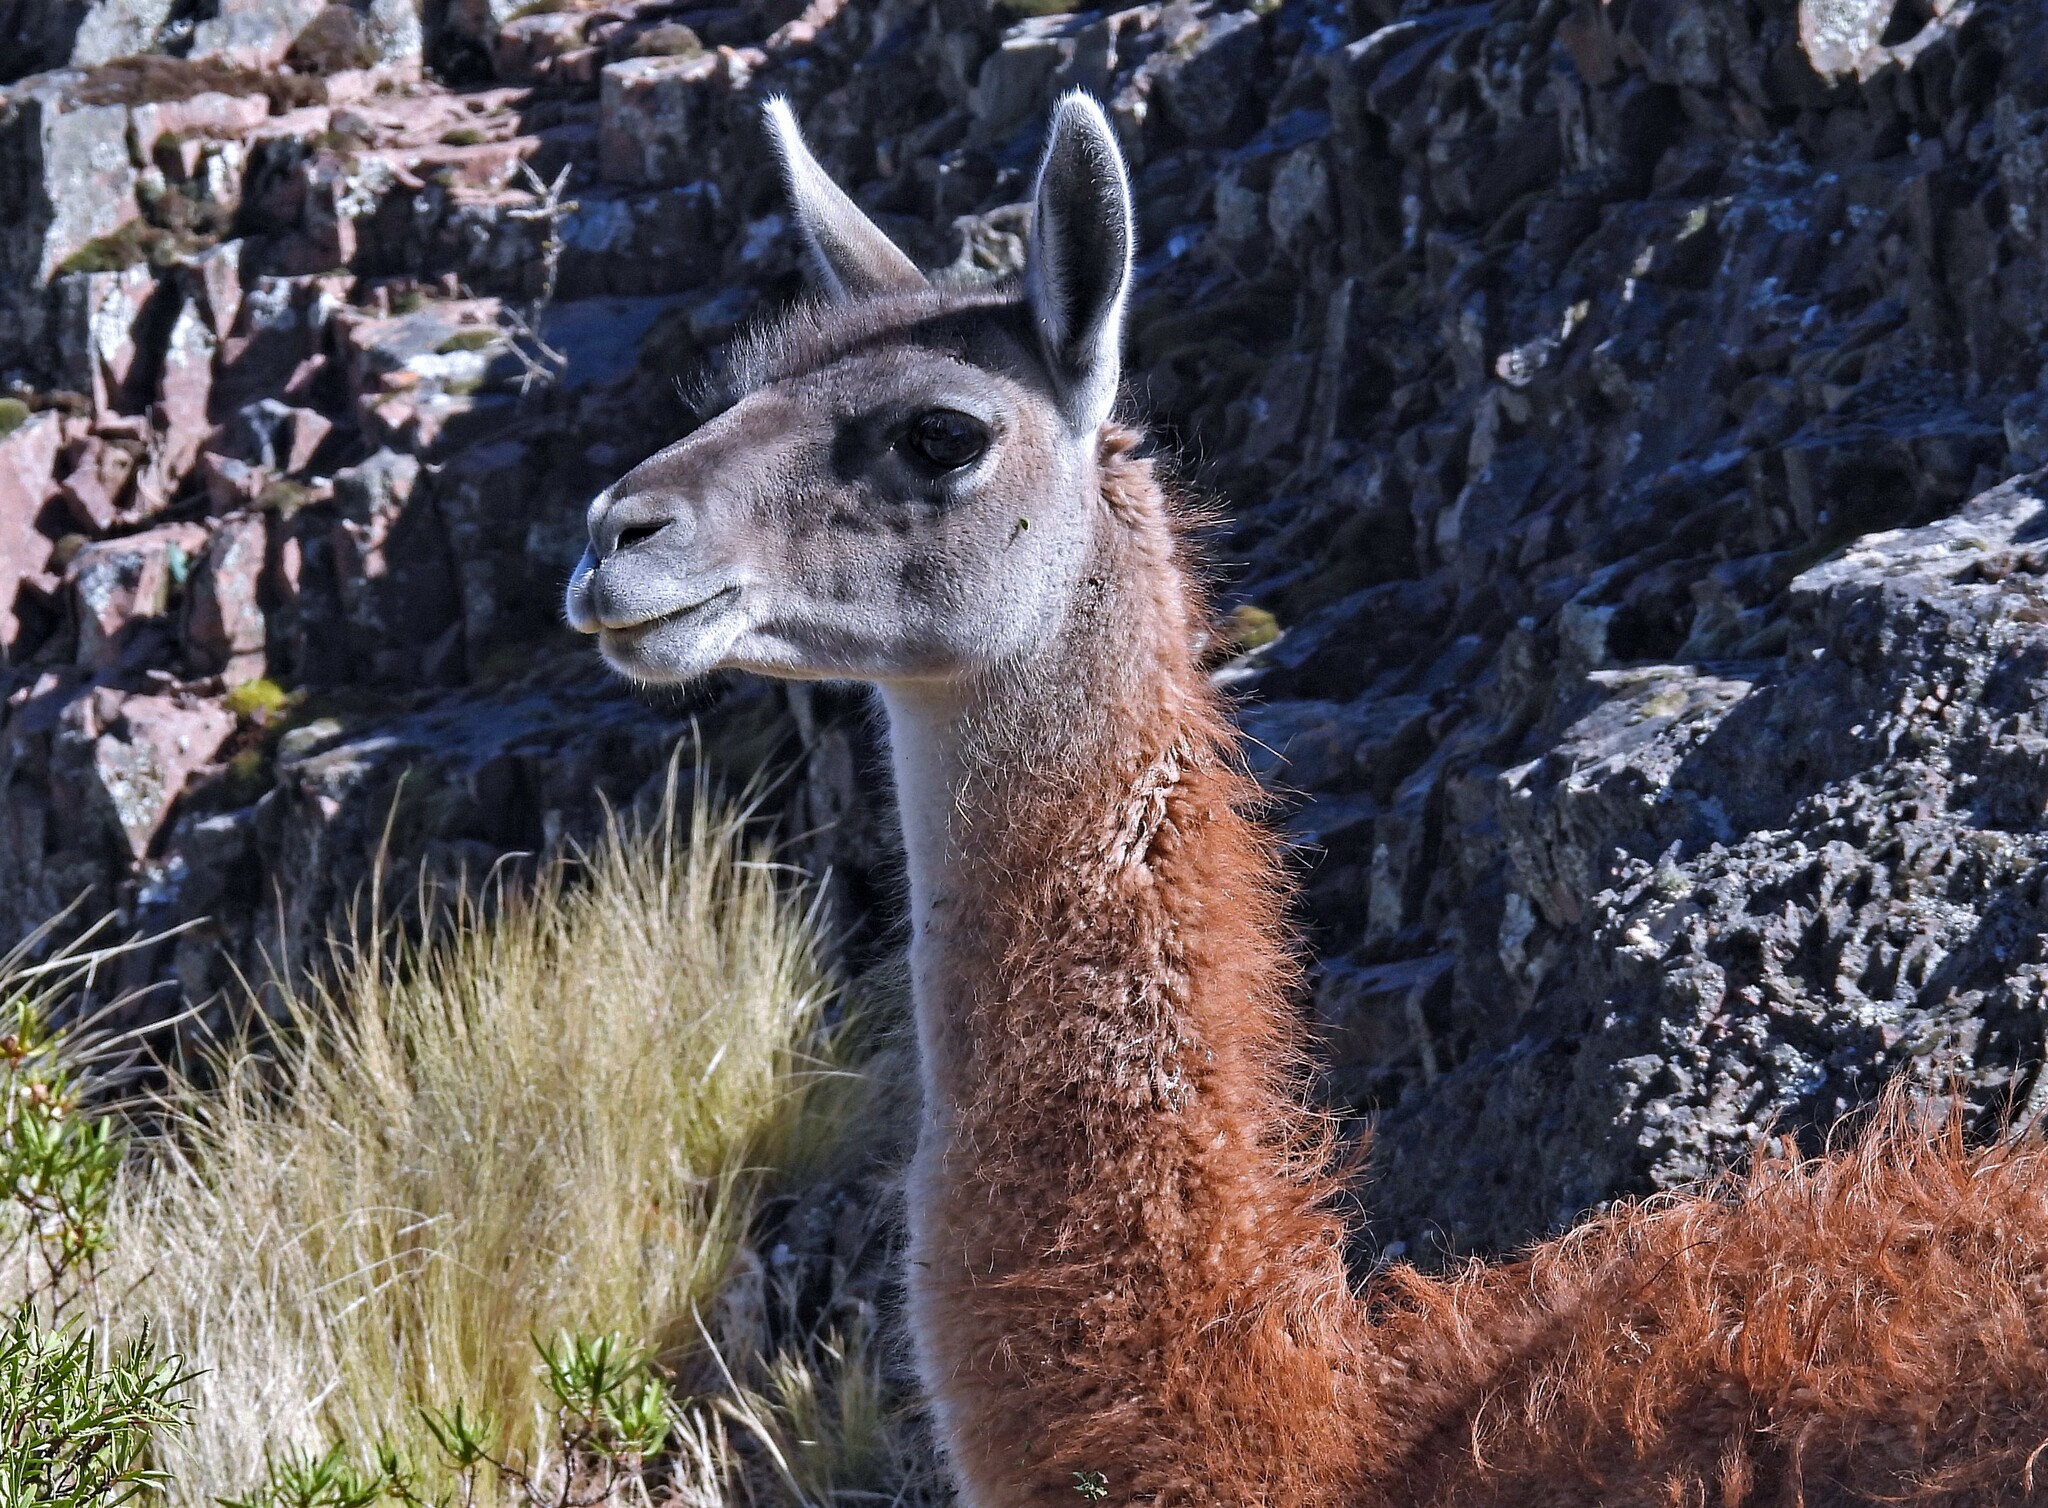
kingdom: Animalia
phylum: Chordata
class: Mammalia
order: Artiodactyla
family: Camelidae
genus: Lama
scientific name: Lama glama
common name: Llama
